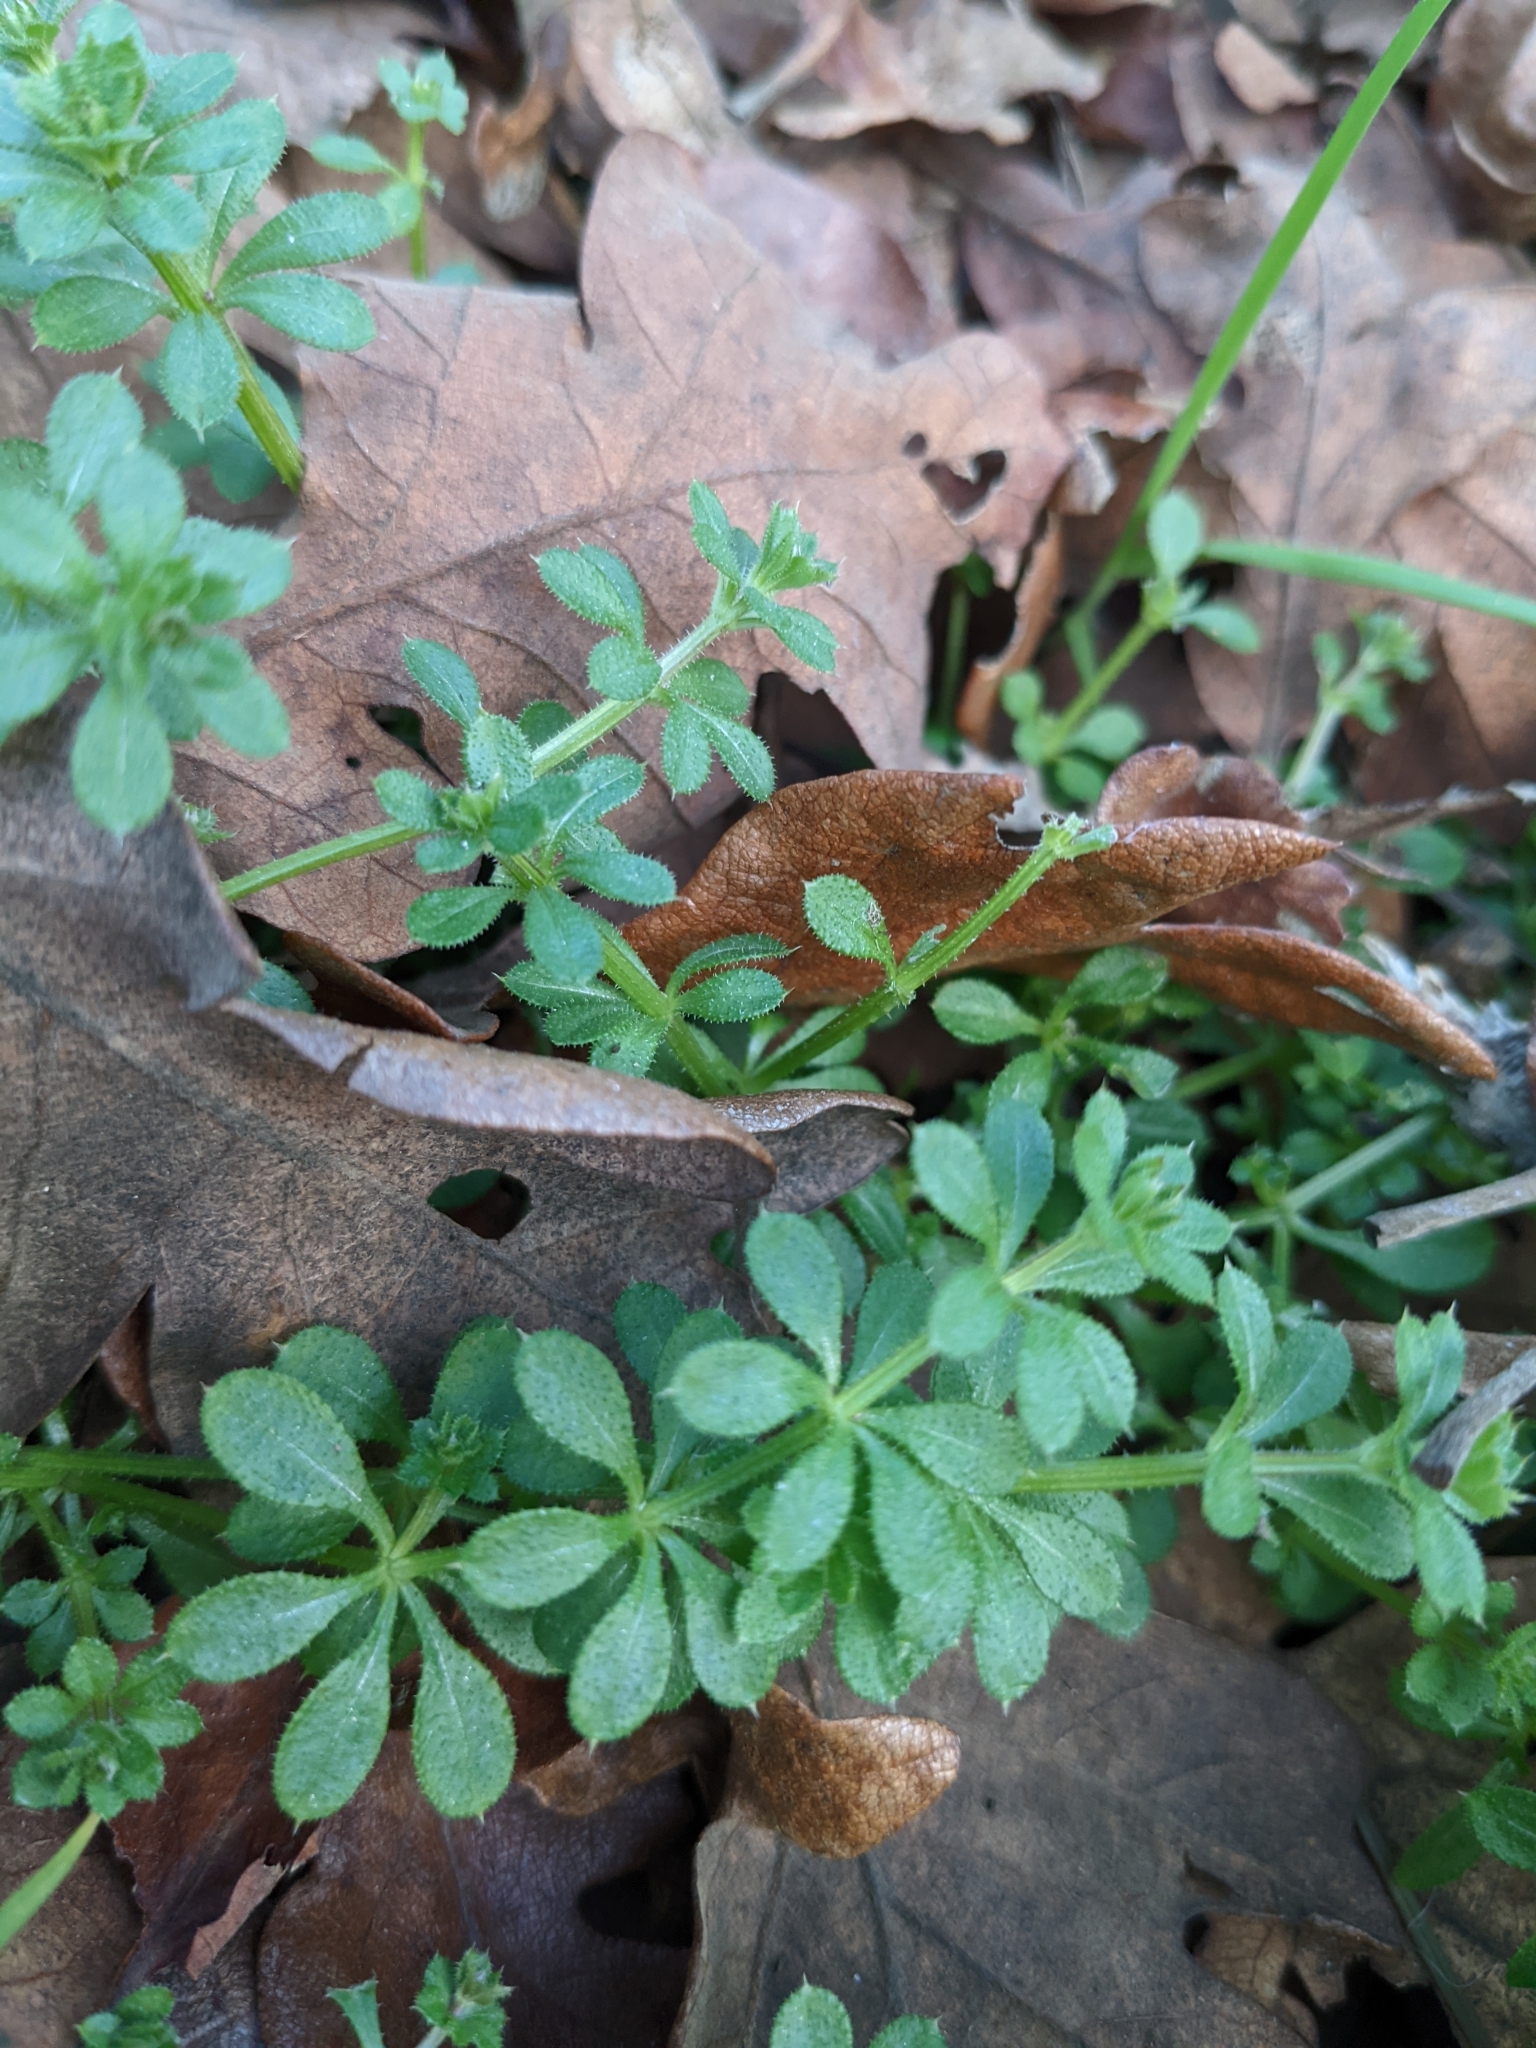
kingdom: Plantae
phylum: Tracheophyta
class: Magnoliopsida
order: Gentianales
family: Rubiaceae
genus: Galium
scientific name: Galium aparine
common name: Cleavers
